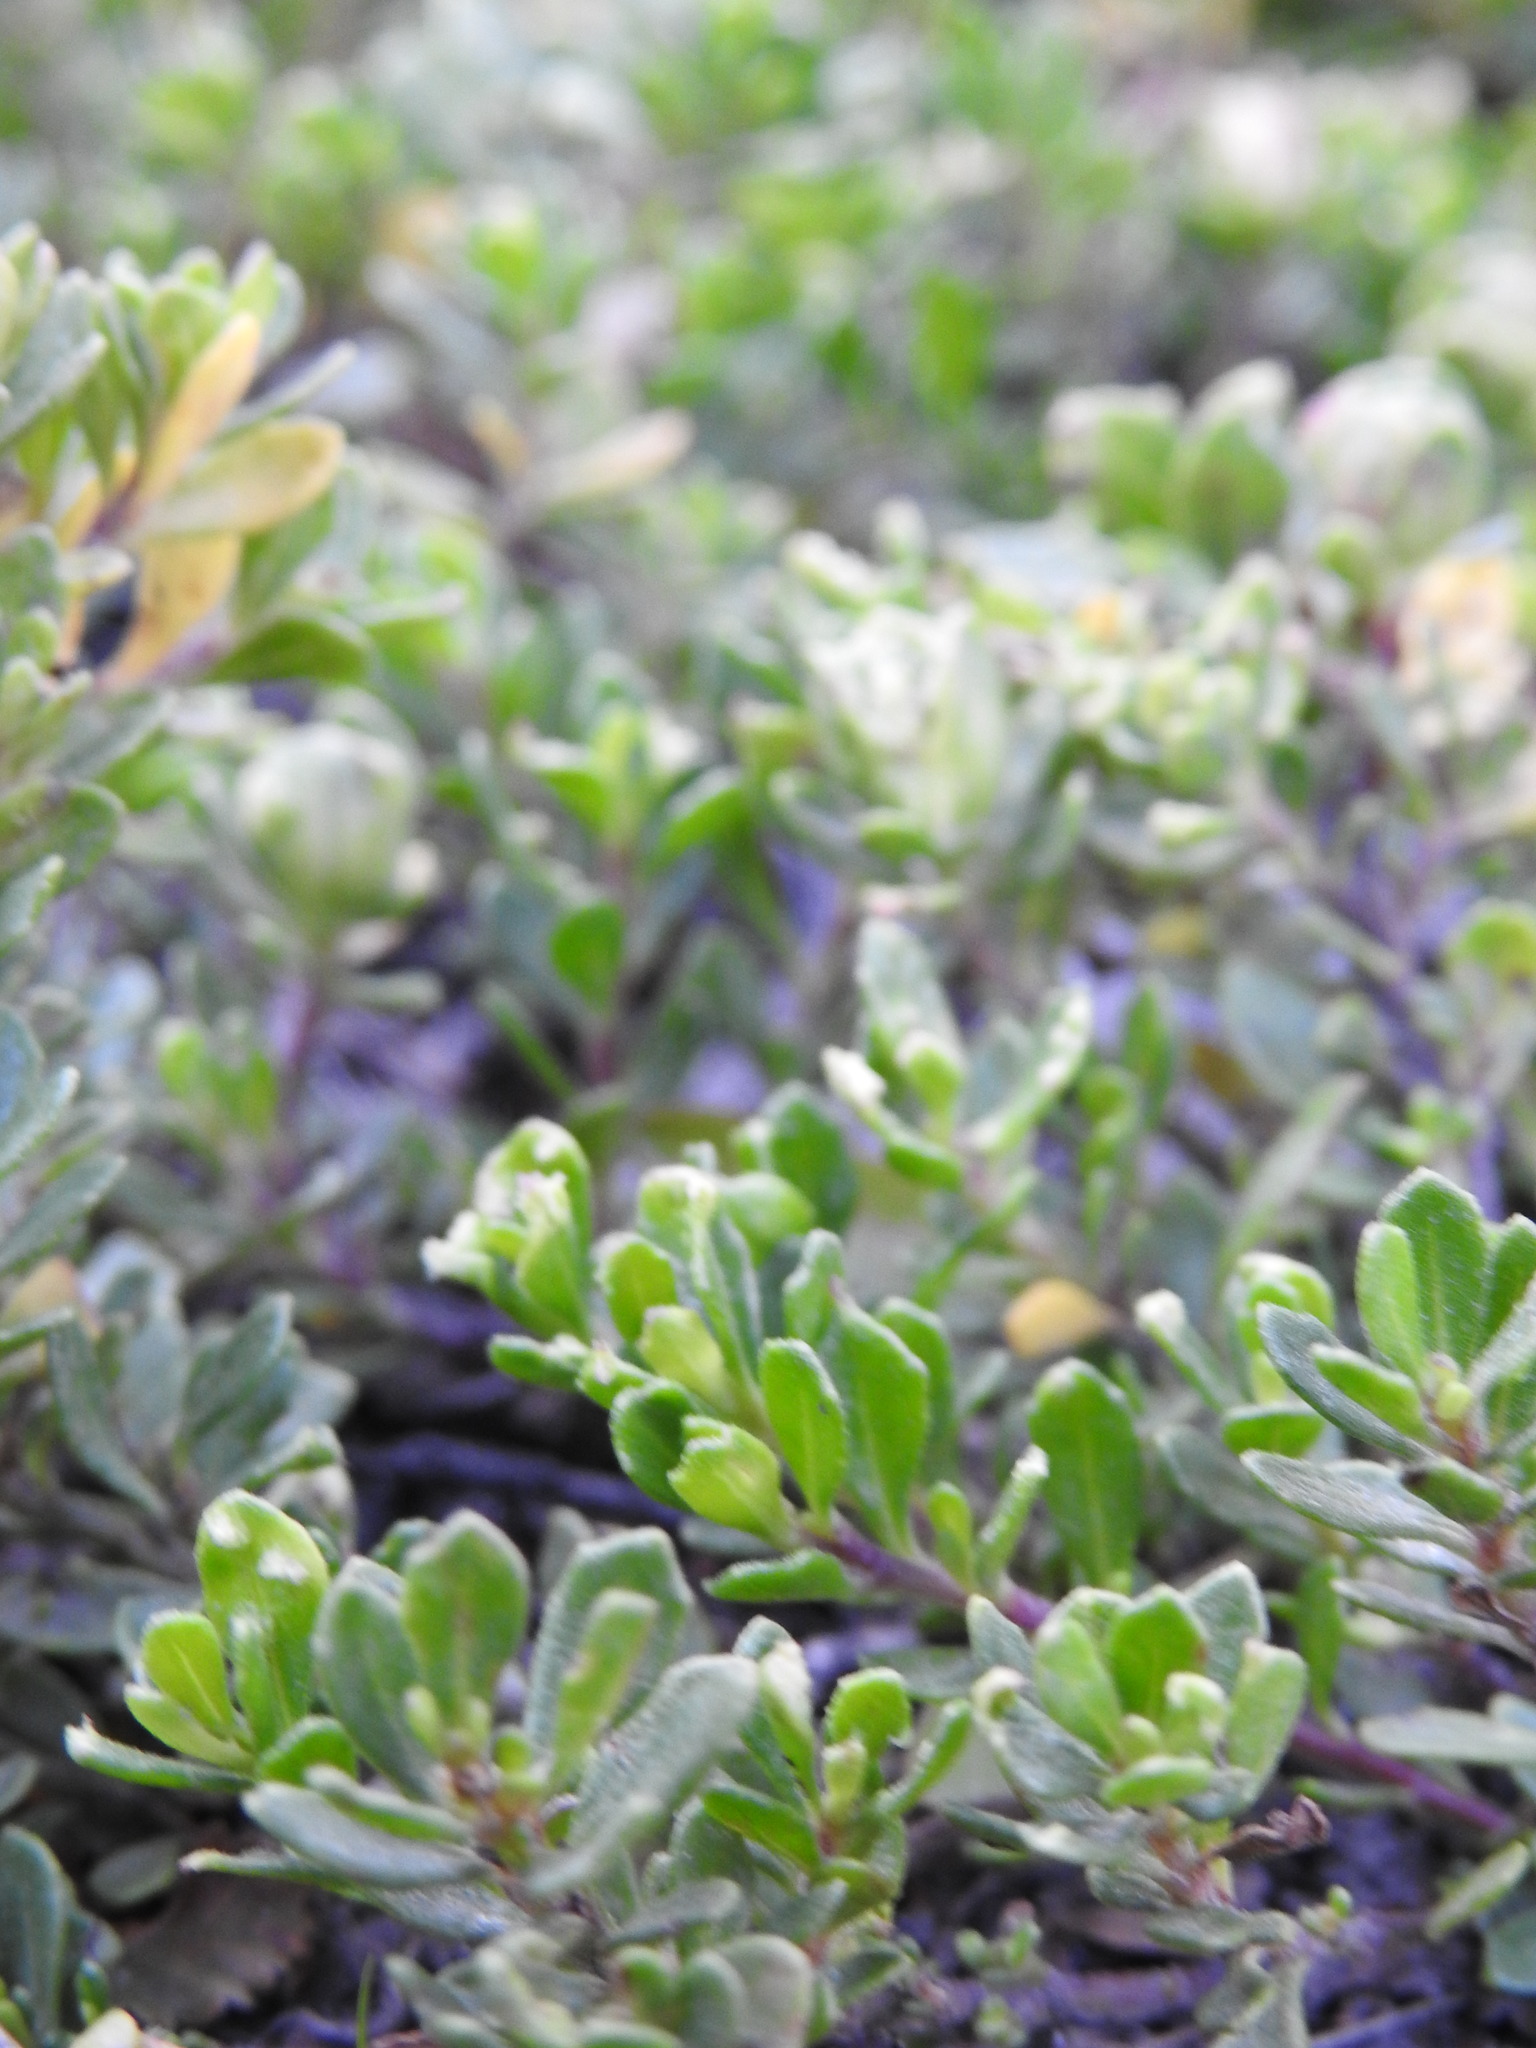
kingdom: Plantae
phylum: Tracheophyta
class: Magnoliopsida
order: Asterales
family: Asteraceae
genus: Baccharis
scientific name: Baccharis magellanica
